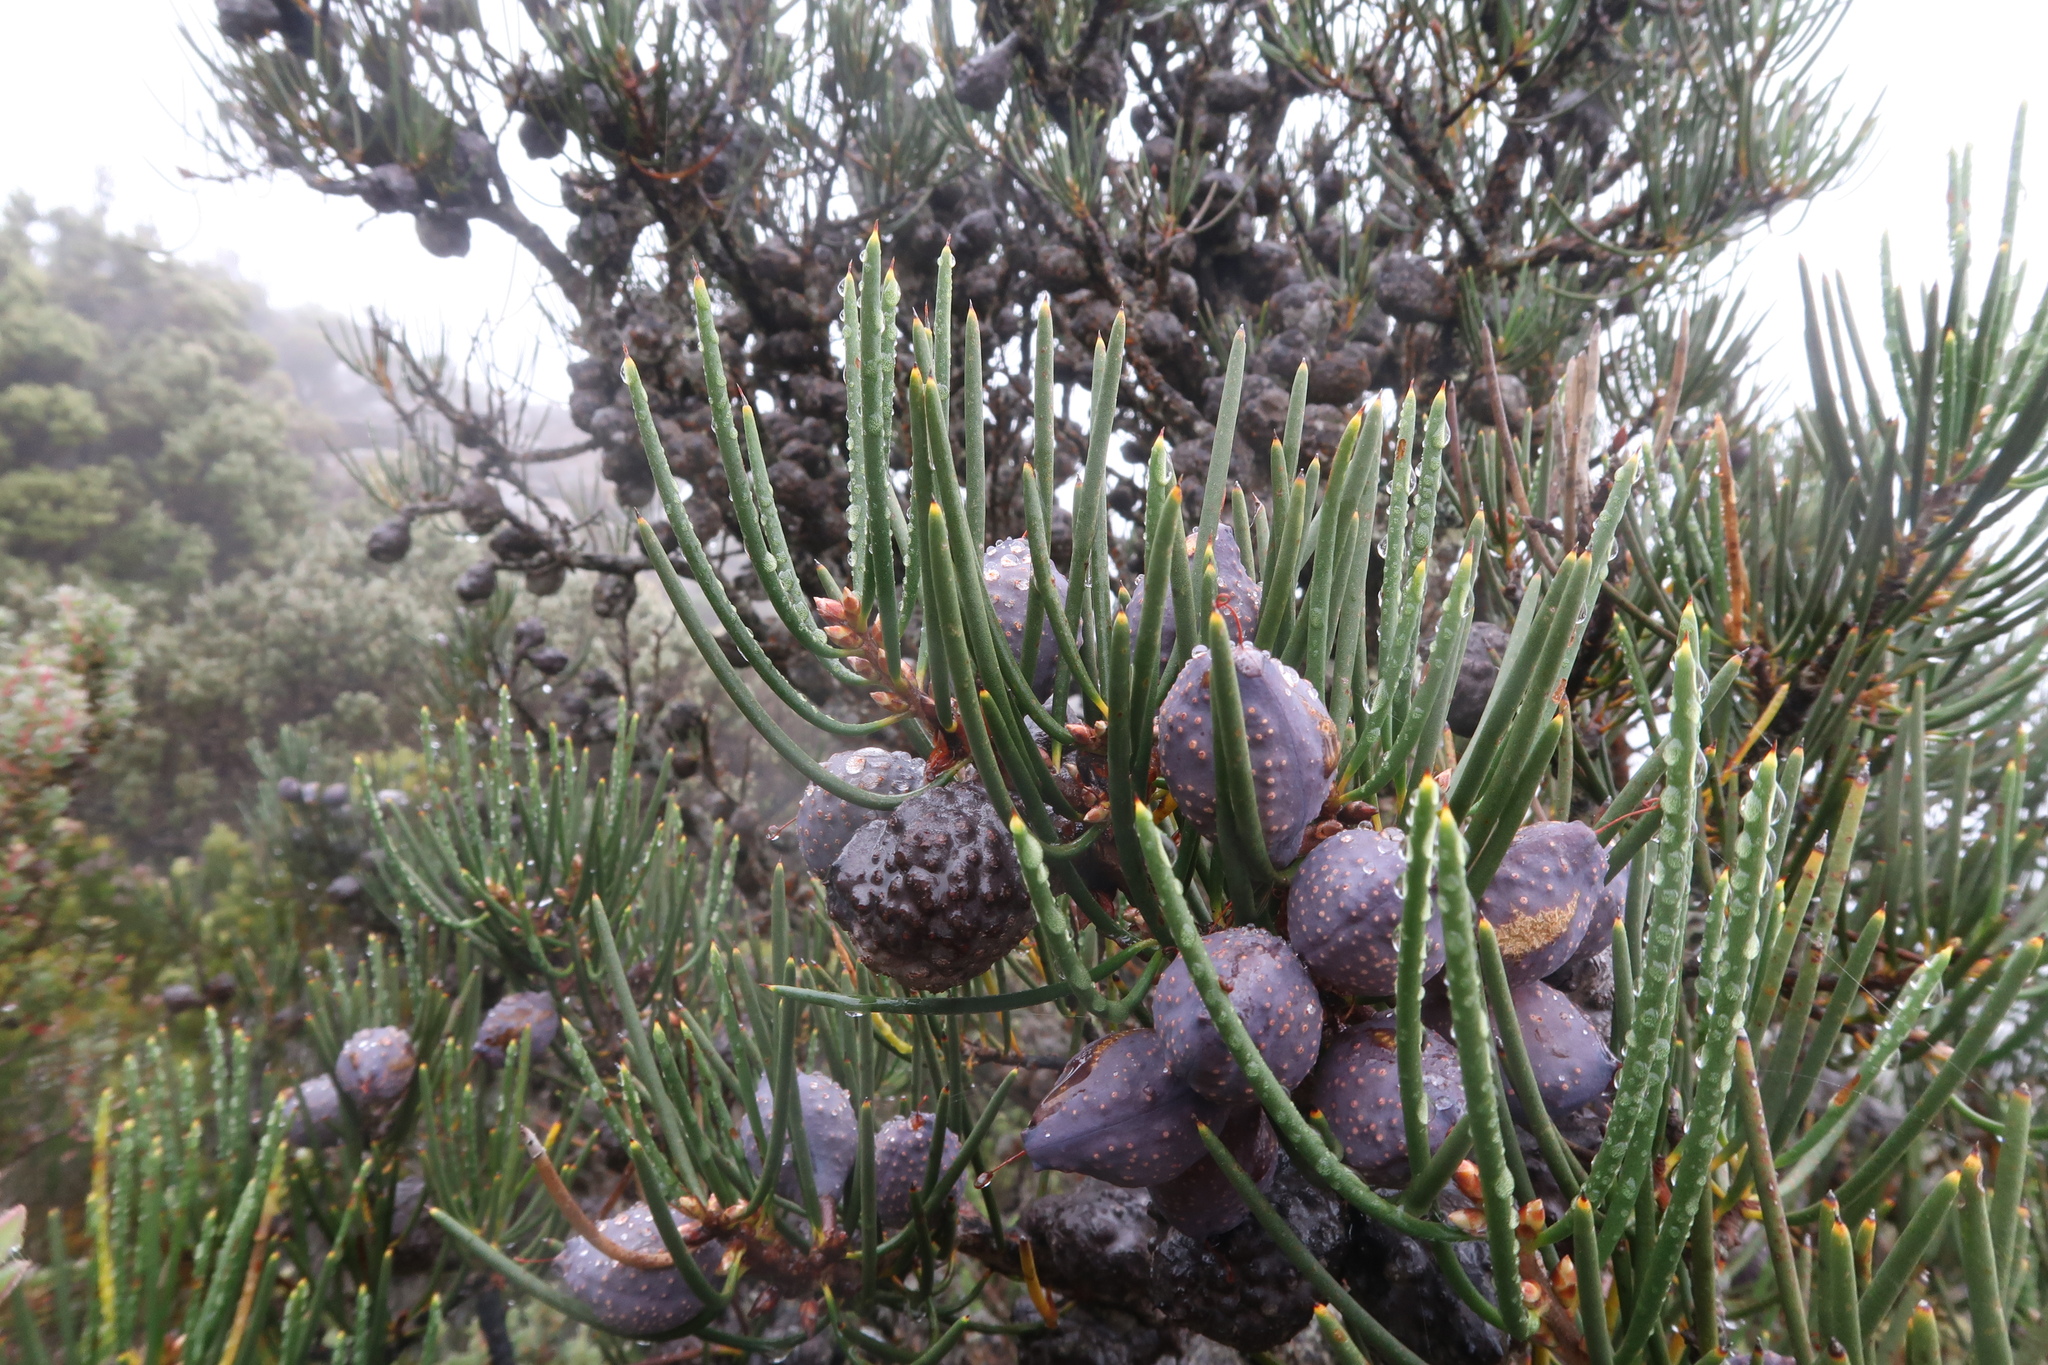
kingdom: Plantae
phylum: Tracheophyta
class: Magnoliopsida
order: Proteales
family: Proteaceae
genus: Hakea
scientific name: Hakea lissosperma
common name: Mountain needlewood
